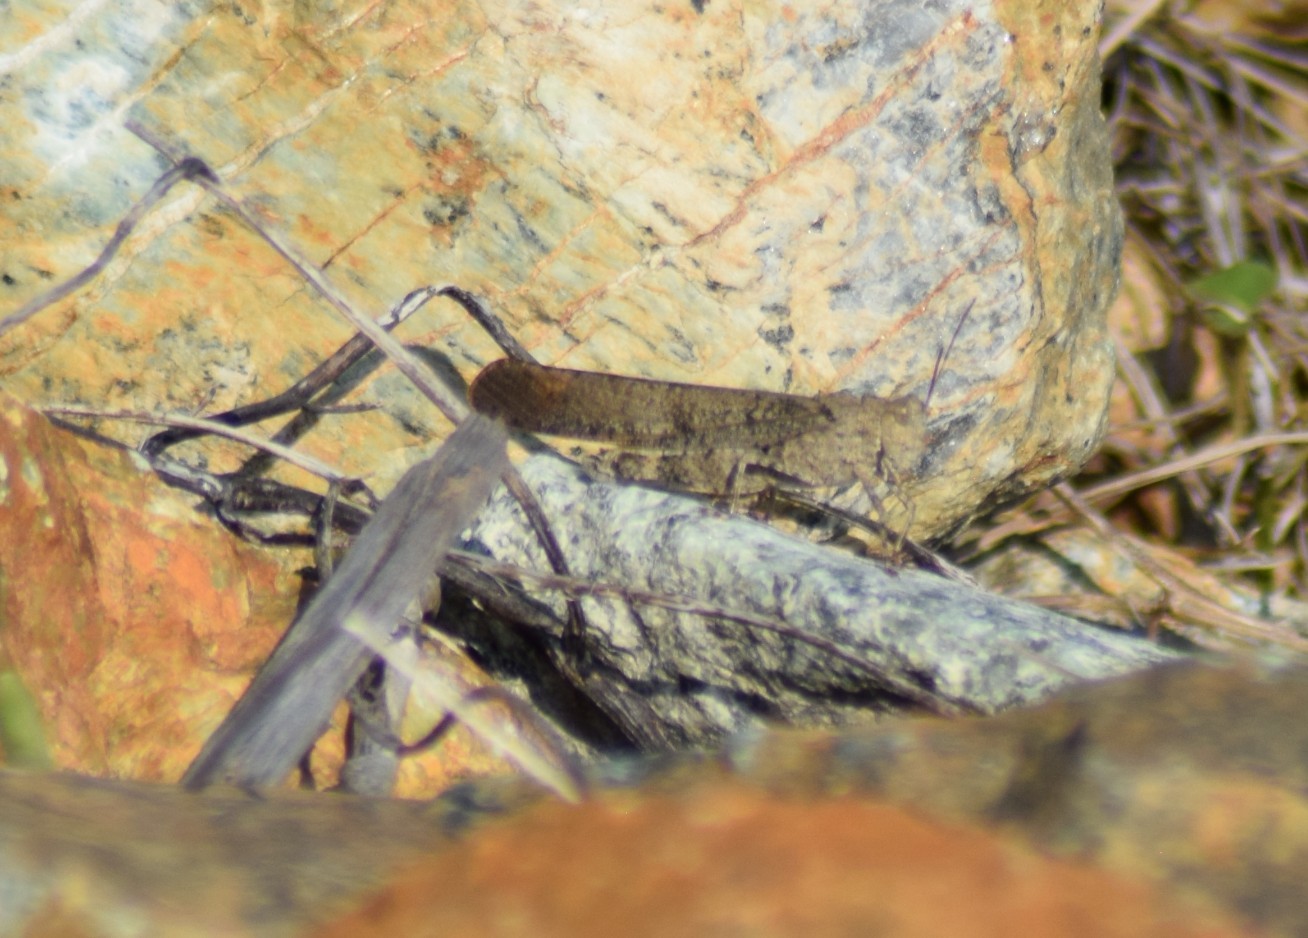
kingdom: Animalia
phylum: Arthropoda
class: Insecta
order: Orthoptera
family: Acrididae
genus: Dissosteira
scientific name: Dissosteira carolina
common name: Carolina grasshopper
